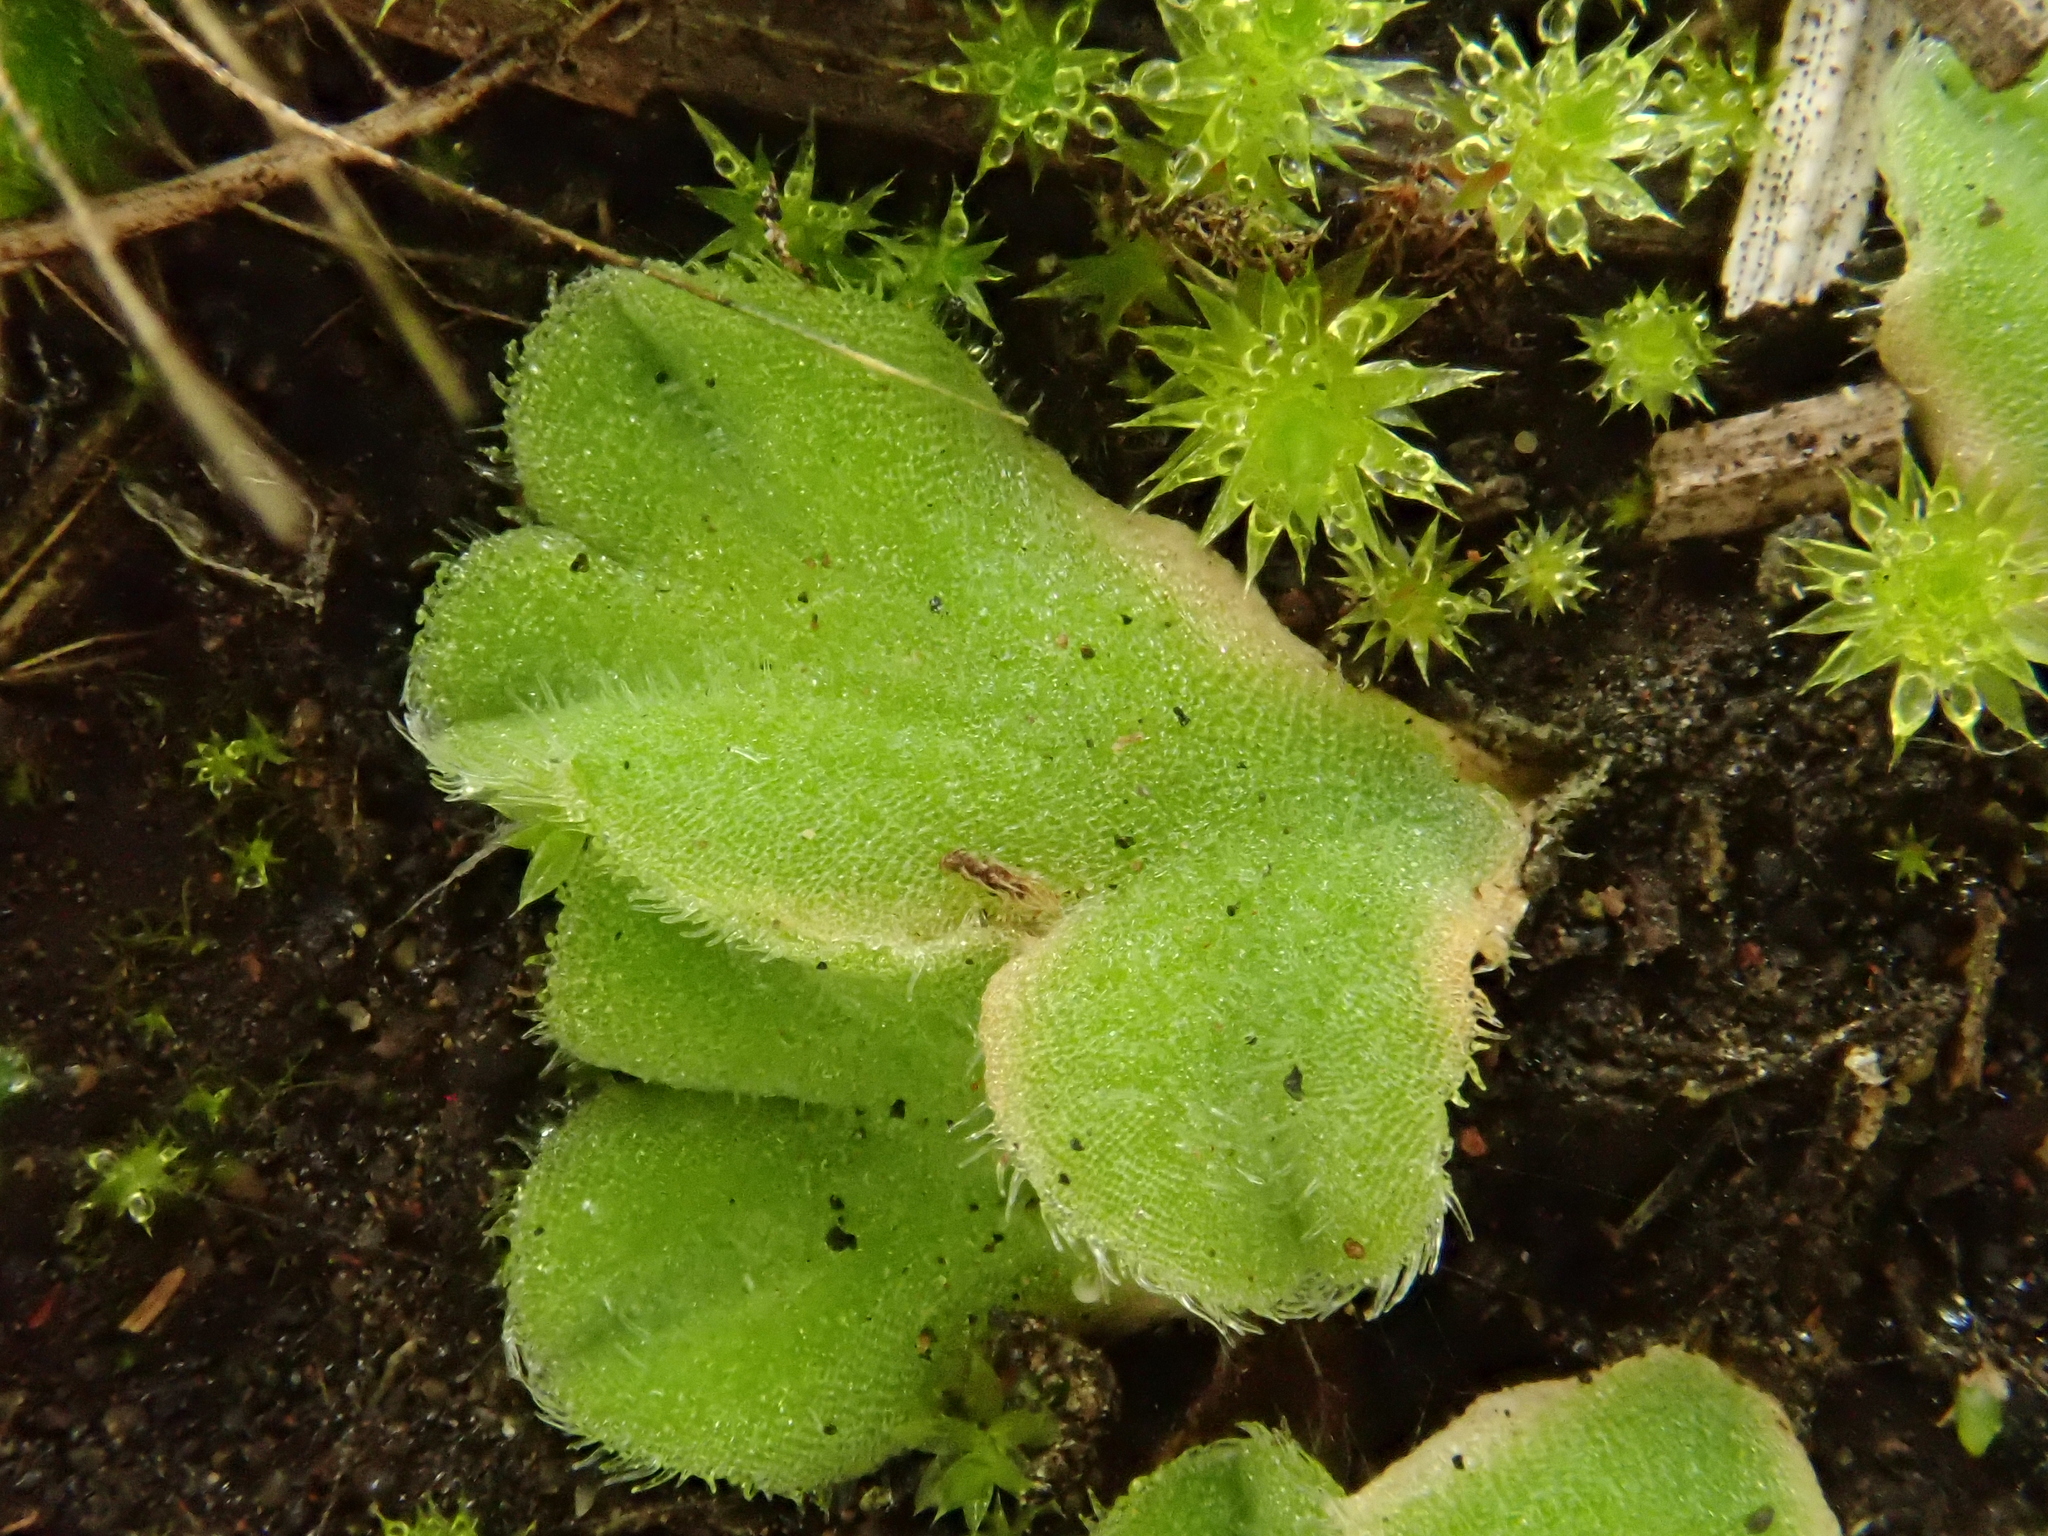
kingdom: Plantae
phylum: Marchantiophyta
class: Marchantiopsida
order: Marchantiales
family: Ricciaceae
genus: Riccia
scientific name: Riccia gougetiana
